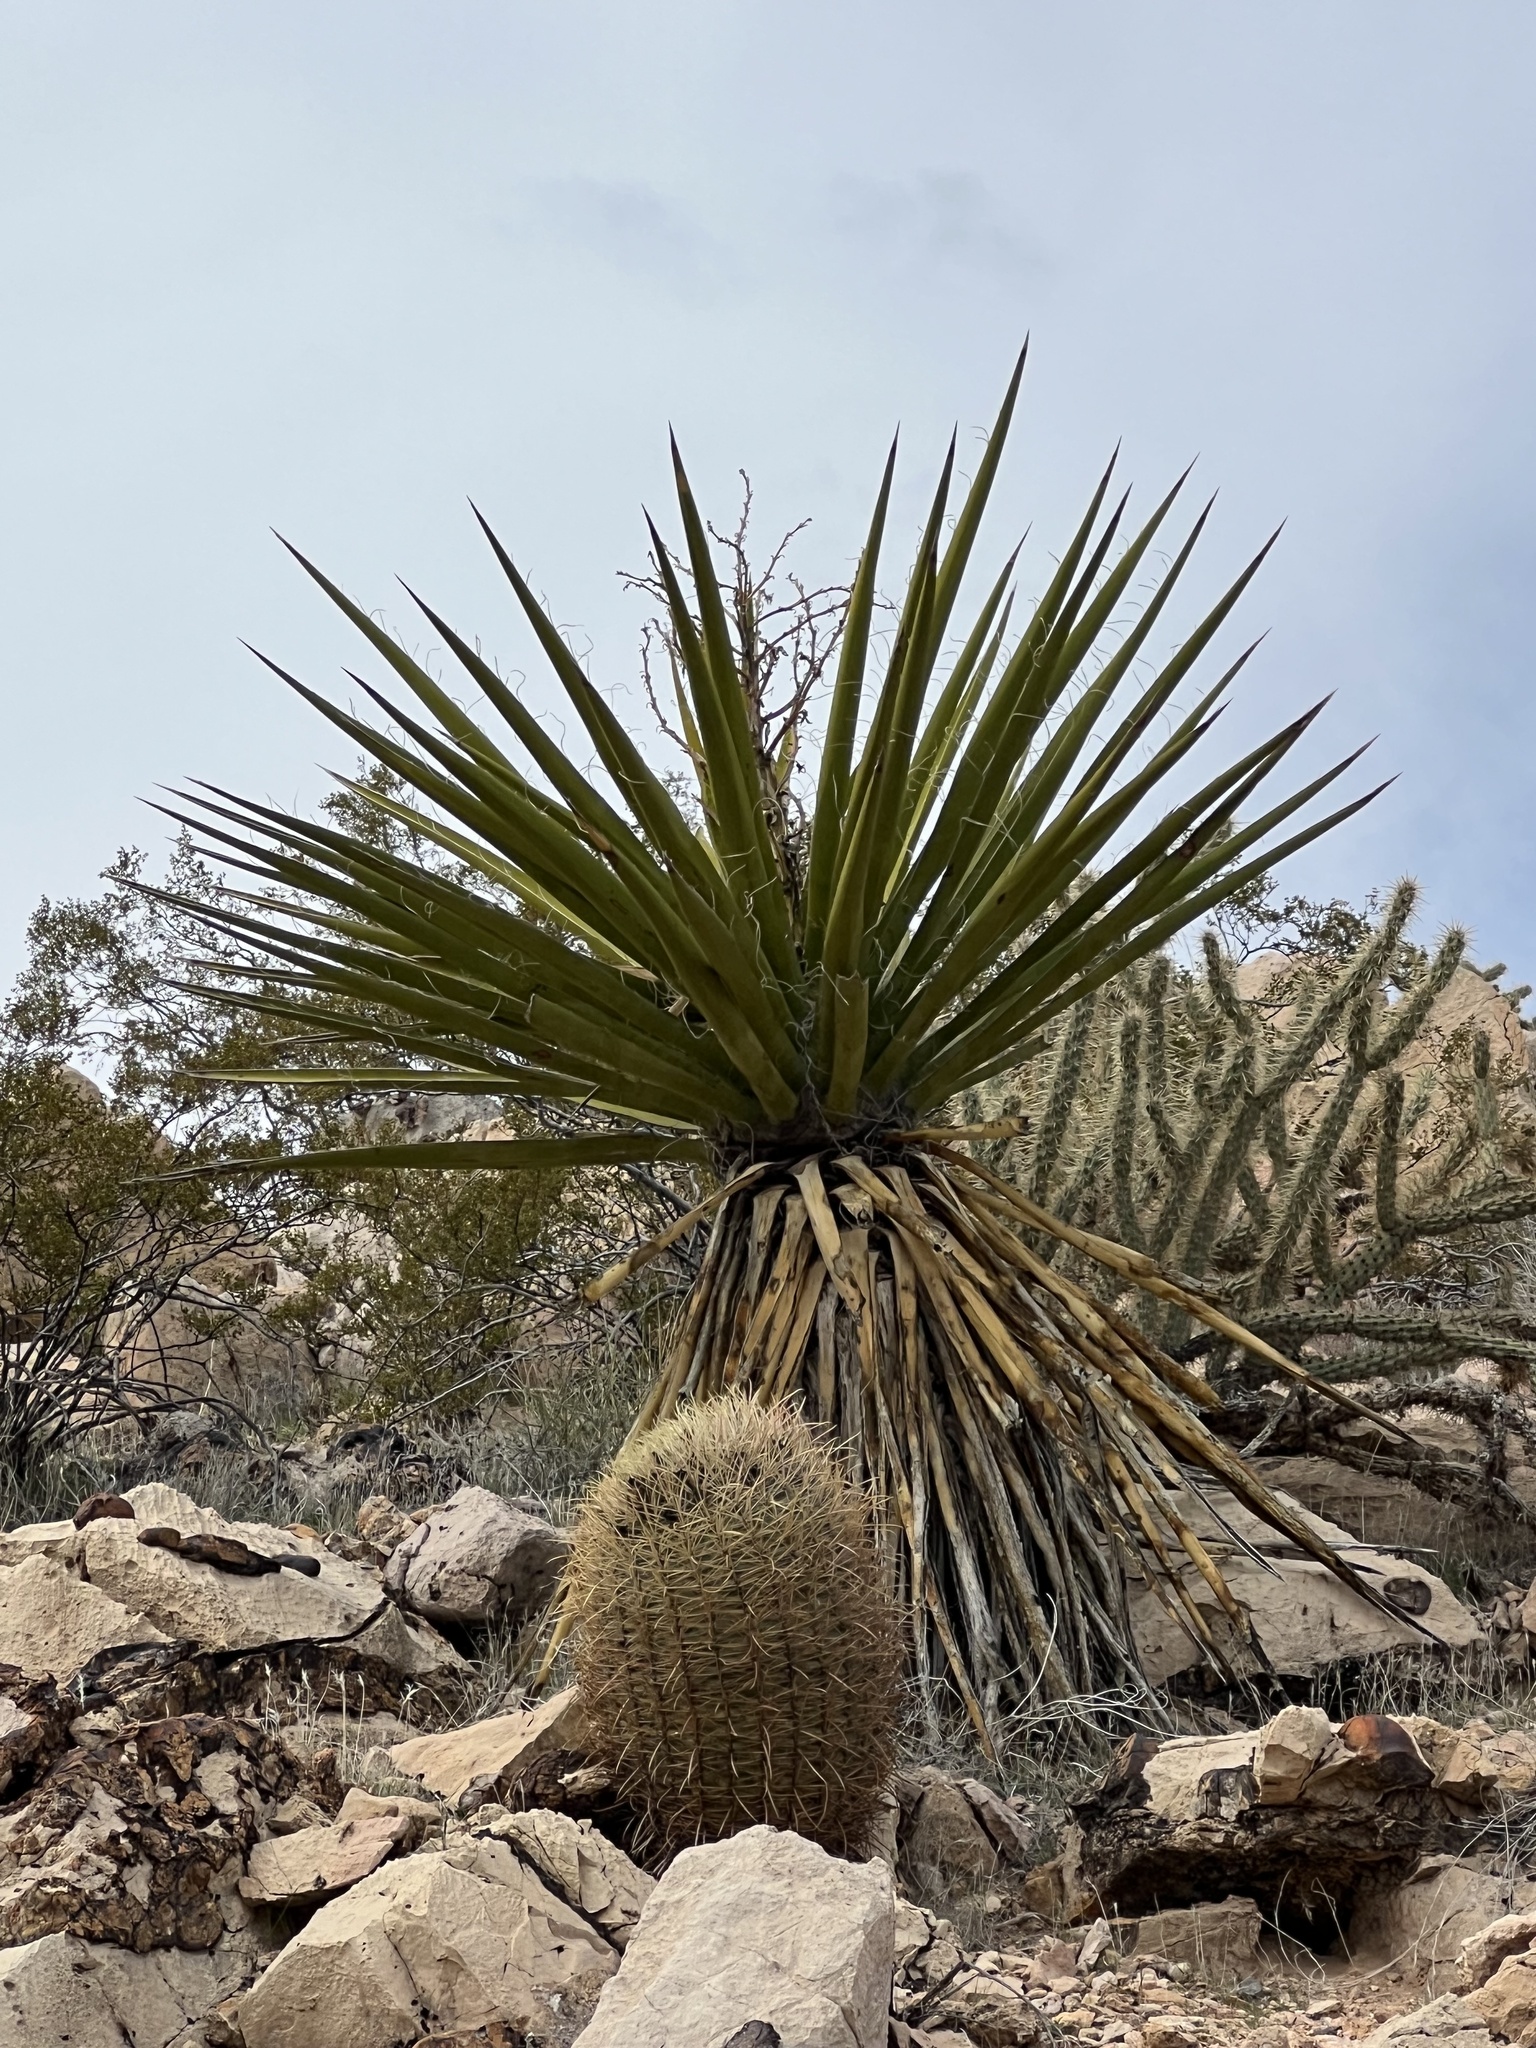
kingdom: Plantae
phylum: Tracheophyta
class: Liliopsida
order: Asparagales
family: Asparagaceae
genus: Yucca
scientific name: Yucca schidigera
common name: Mojave yucca
